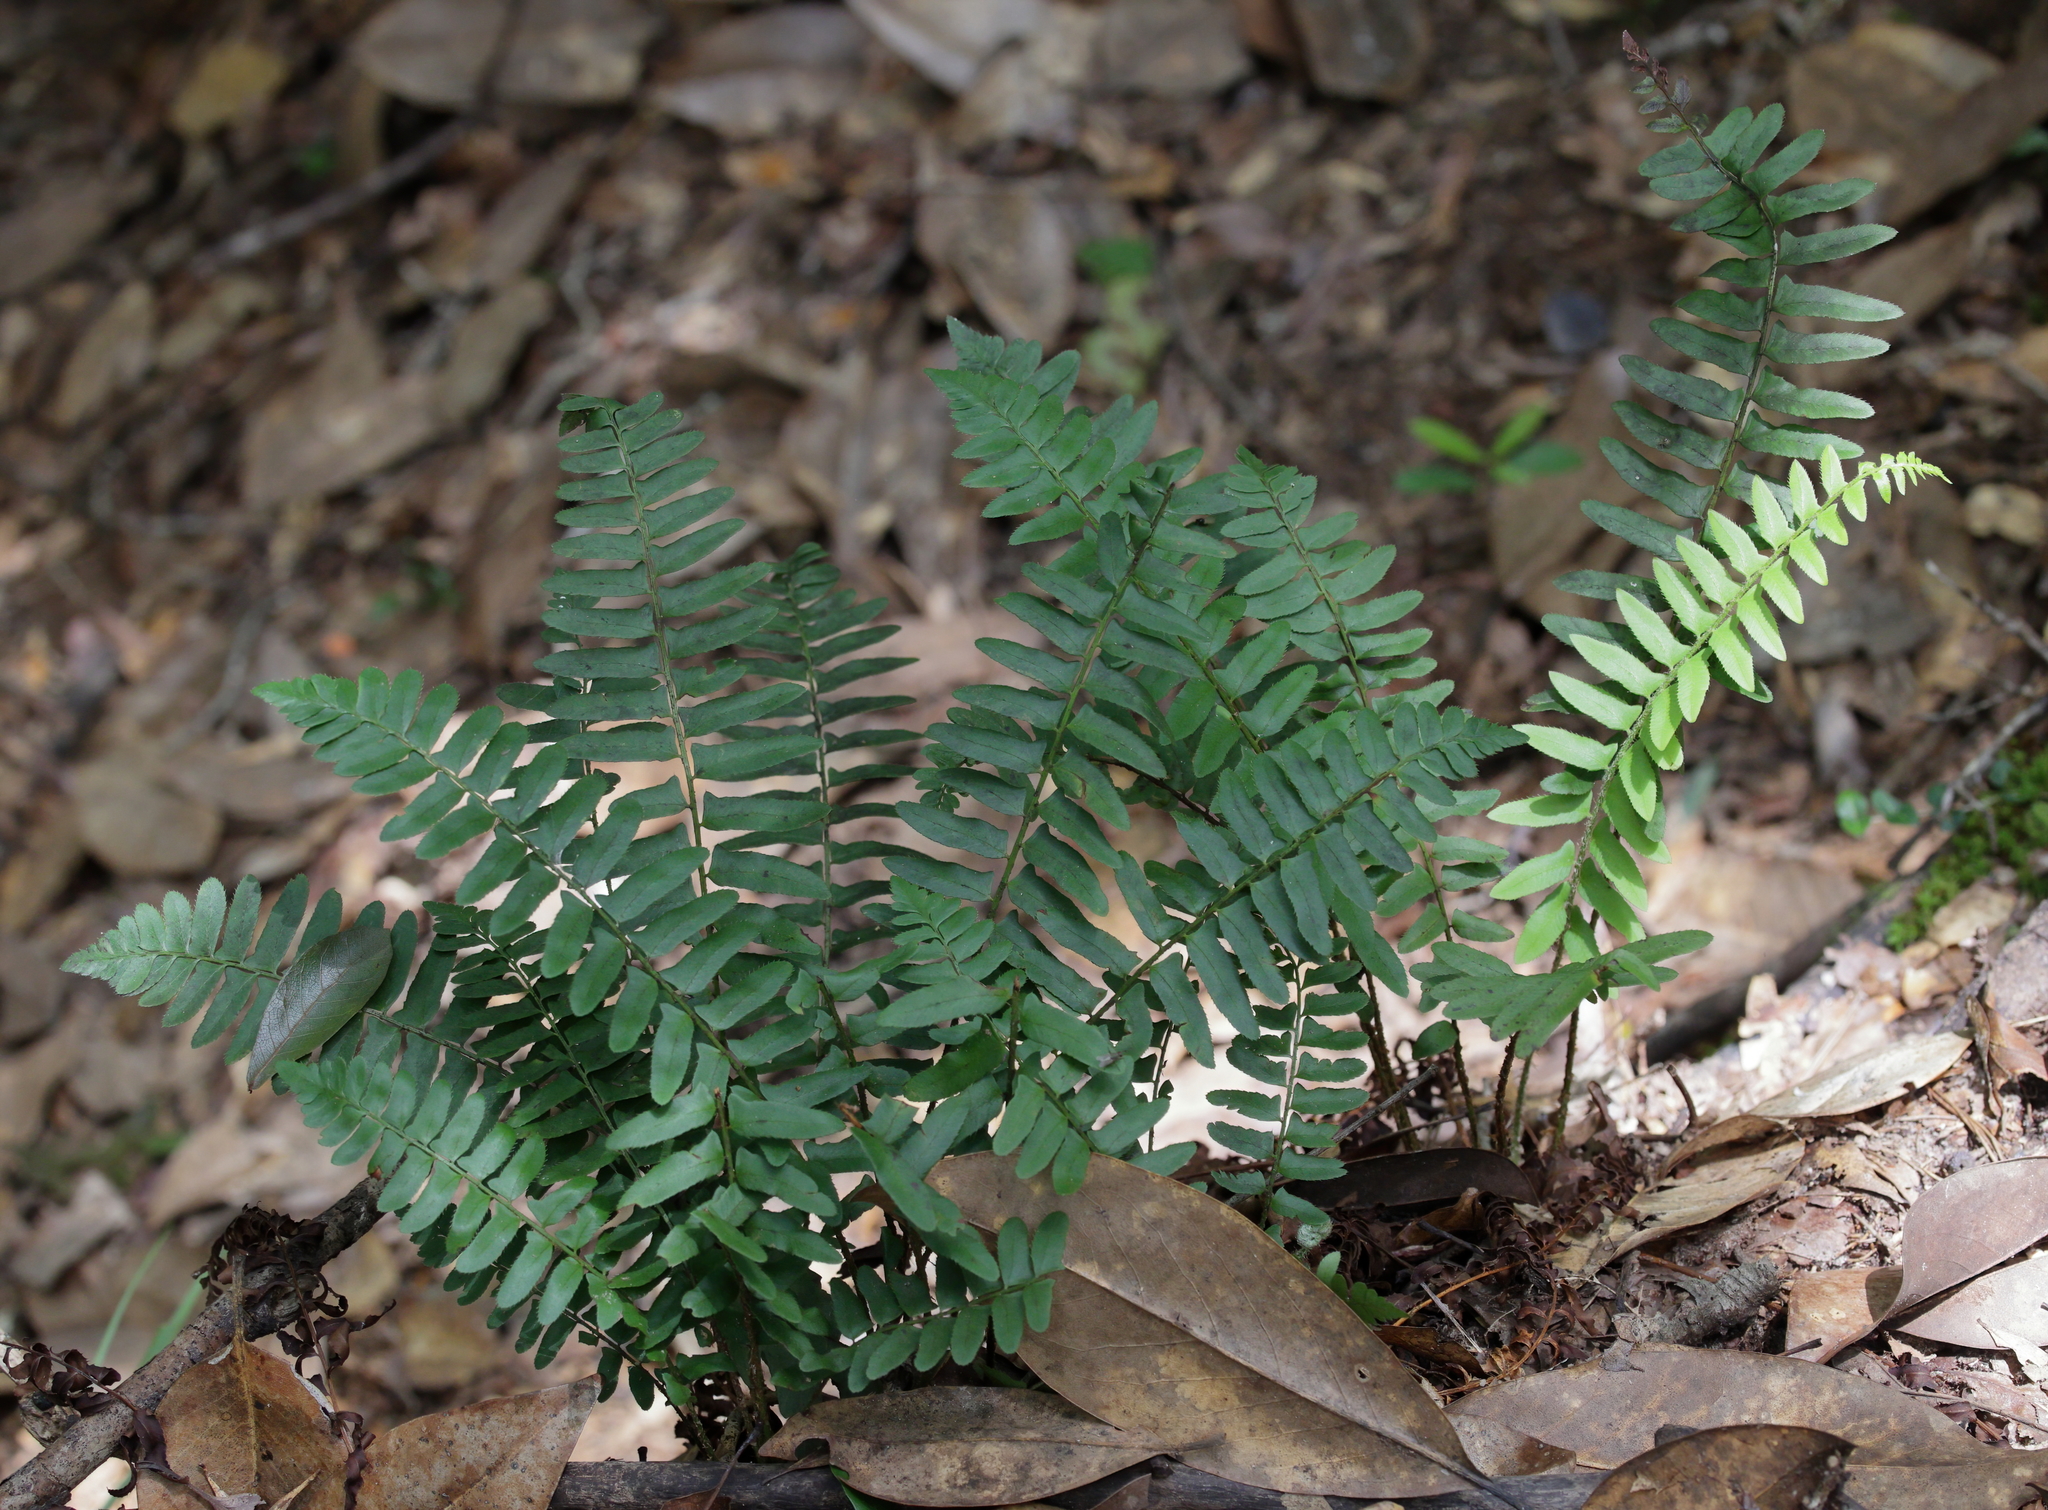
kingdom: Plantae
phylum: Tracheophyta
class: Polypodiopsida
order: Polypodiales
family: Dryopteridaceae
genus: Polystichum
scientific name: Polystichum acrostichoides
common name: Christmas fern
